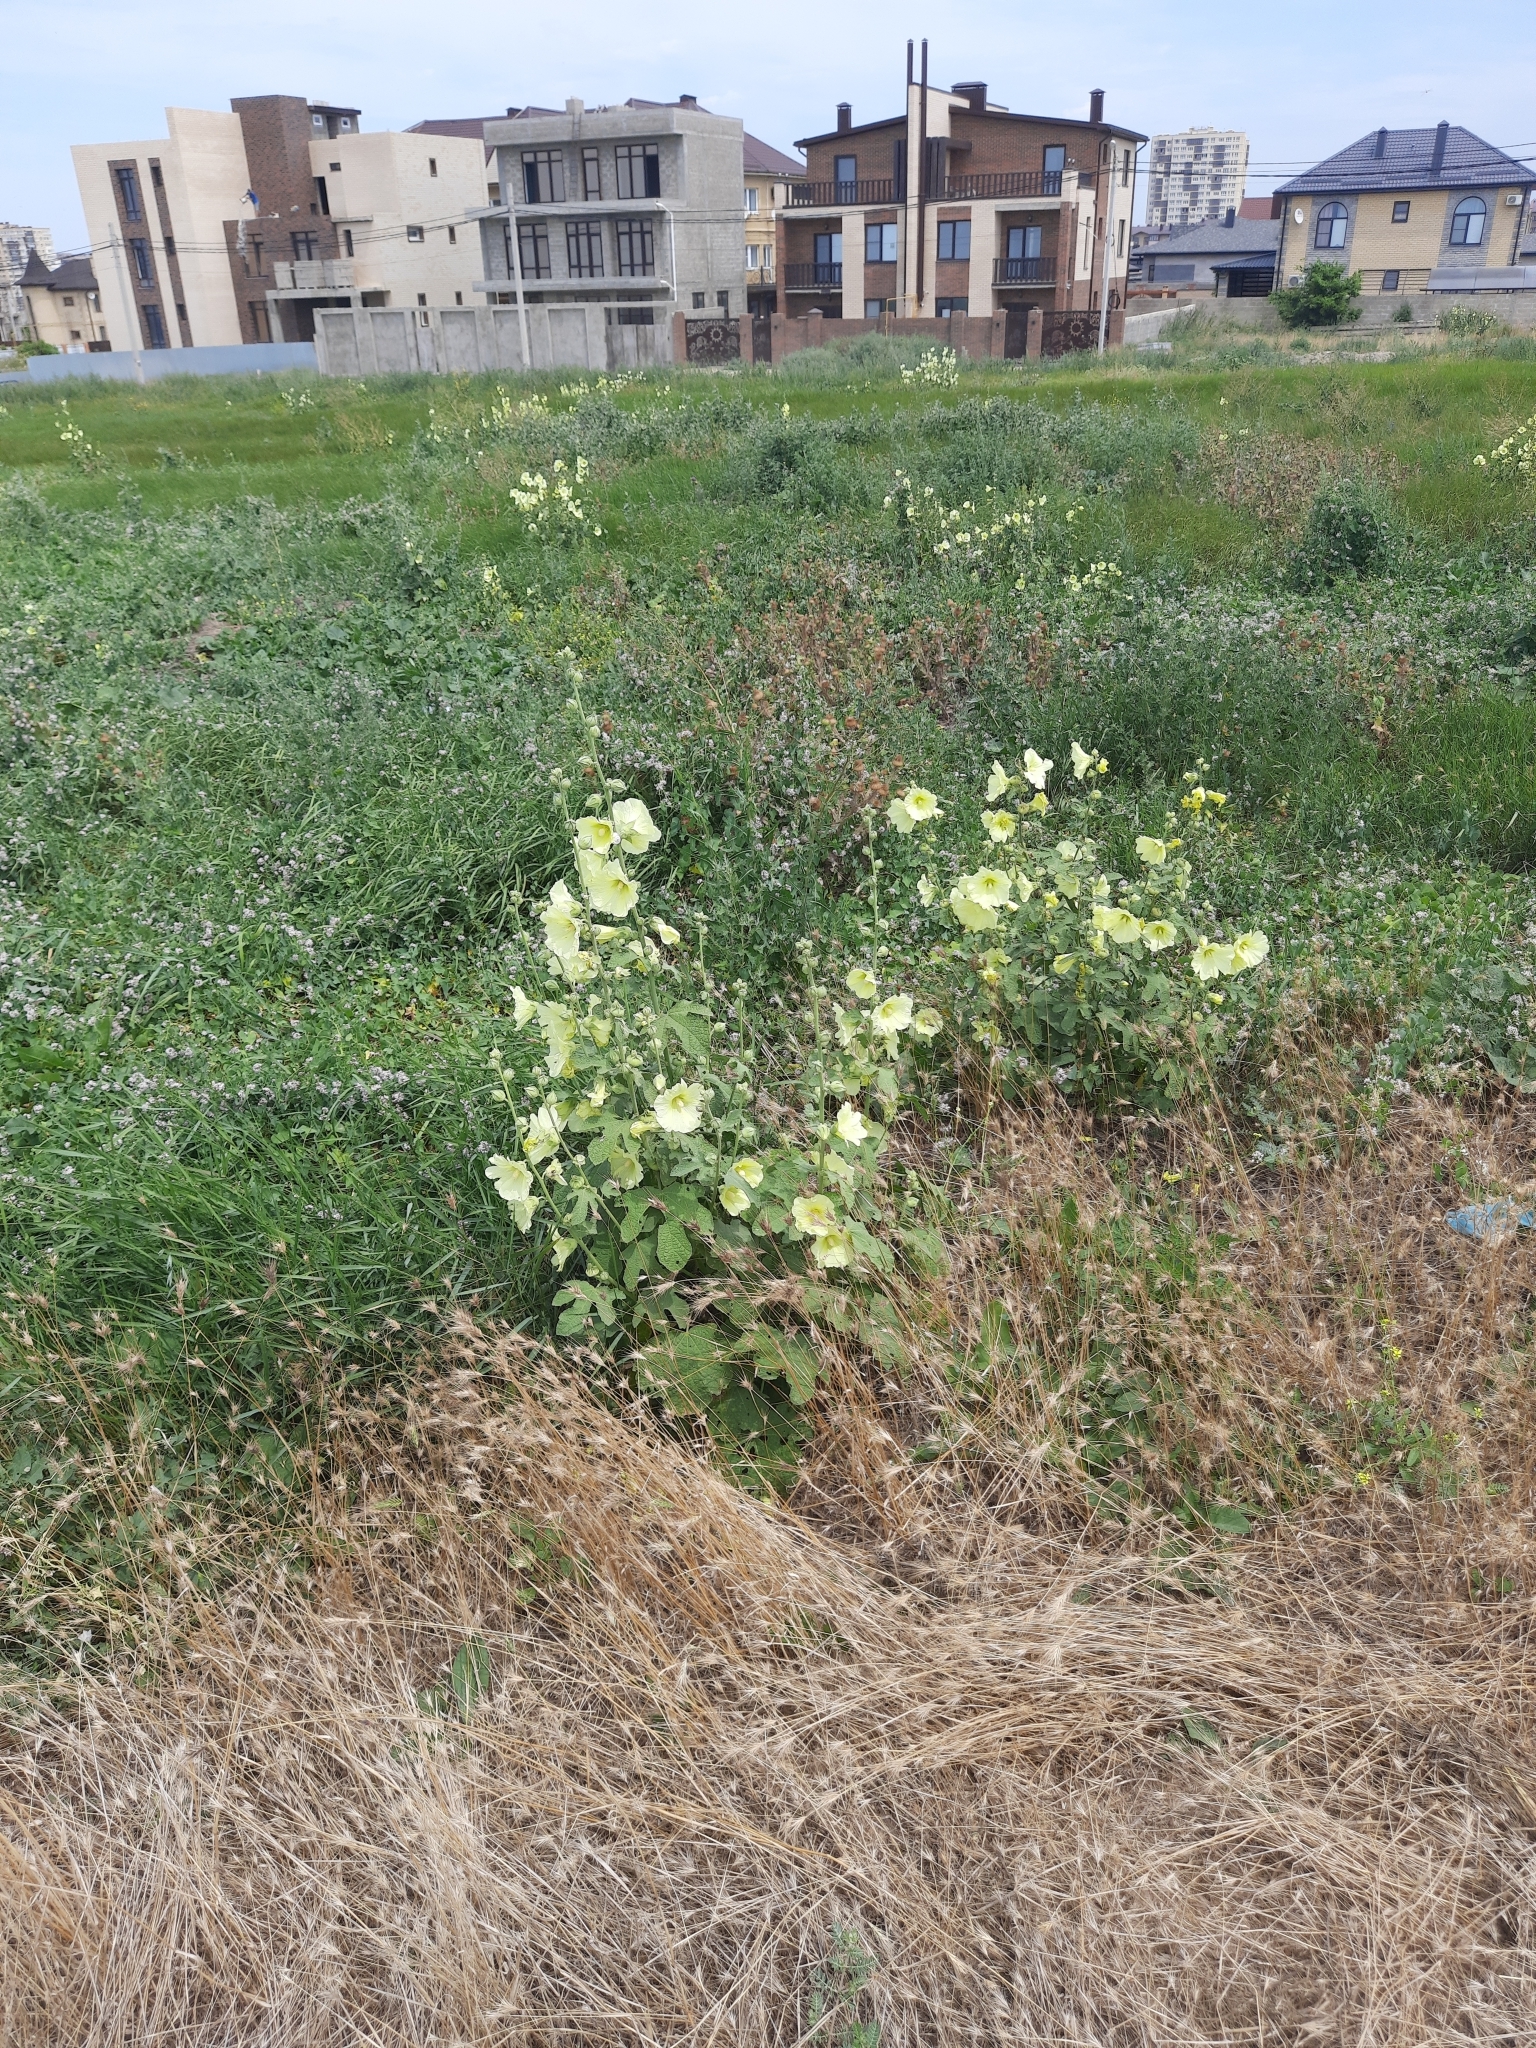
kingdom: Plantae
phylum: Tracheophyta
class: Magnoliopsida
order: Malvales
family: Malvaceae
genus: Alcea
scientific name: Alcea rugosa
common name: Russian hollyhock
